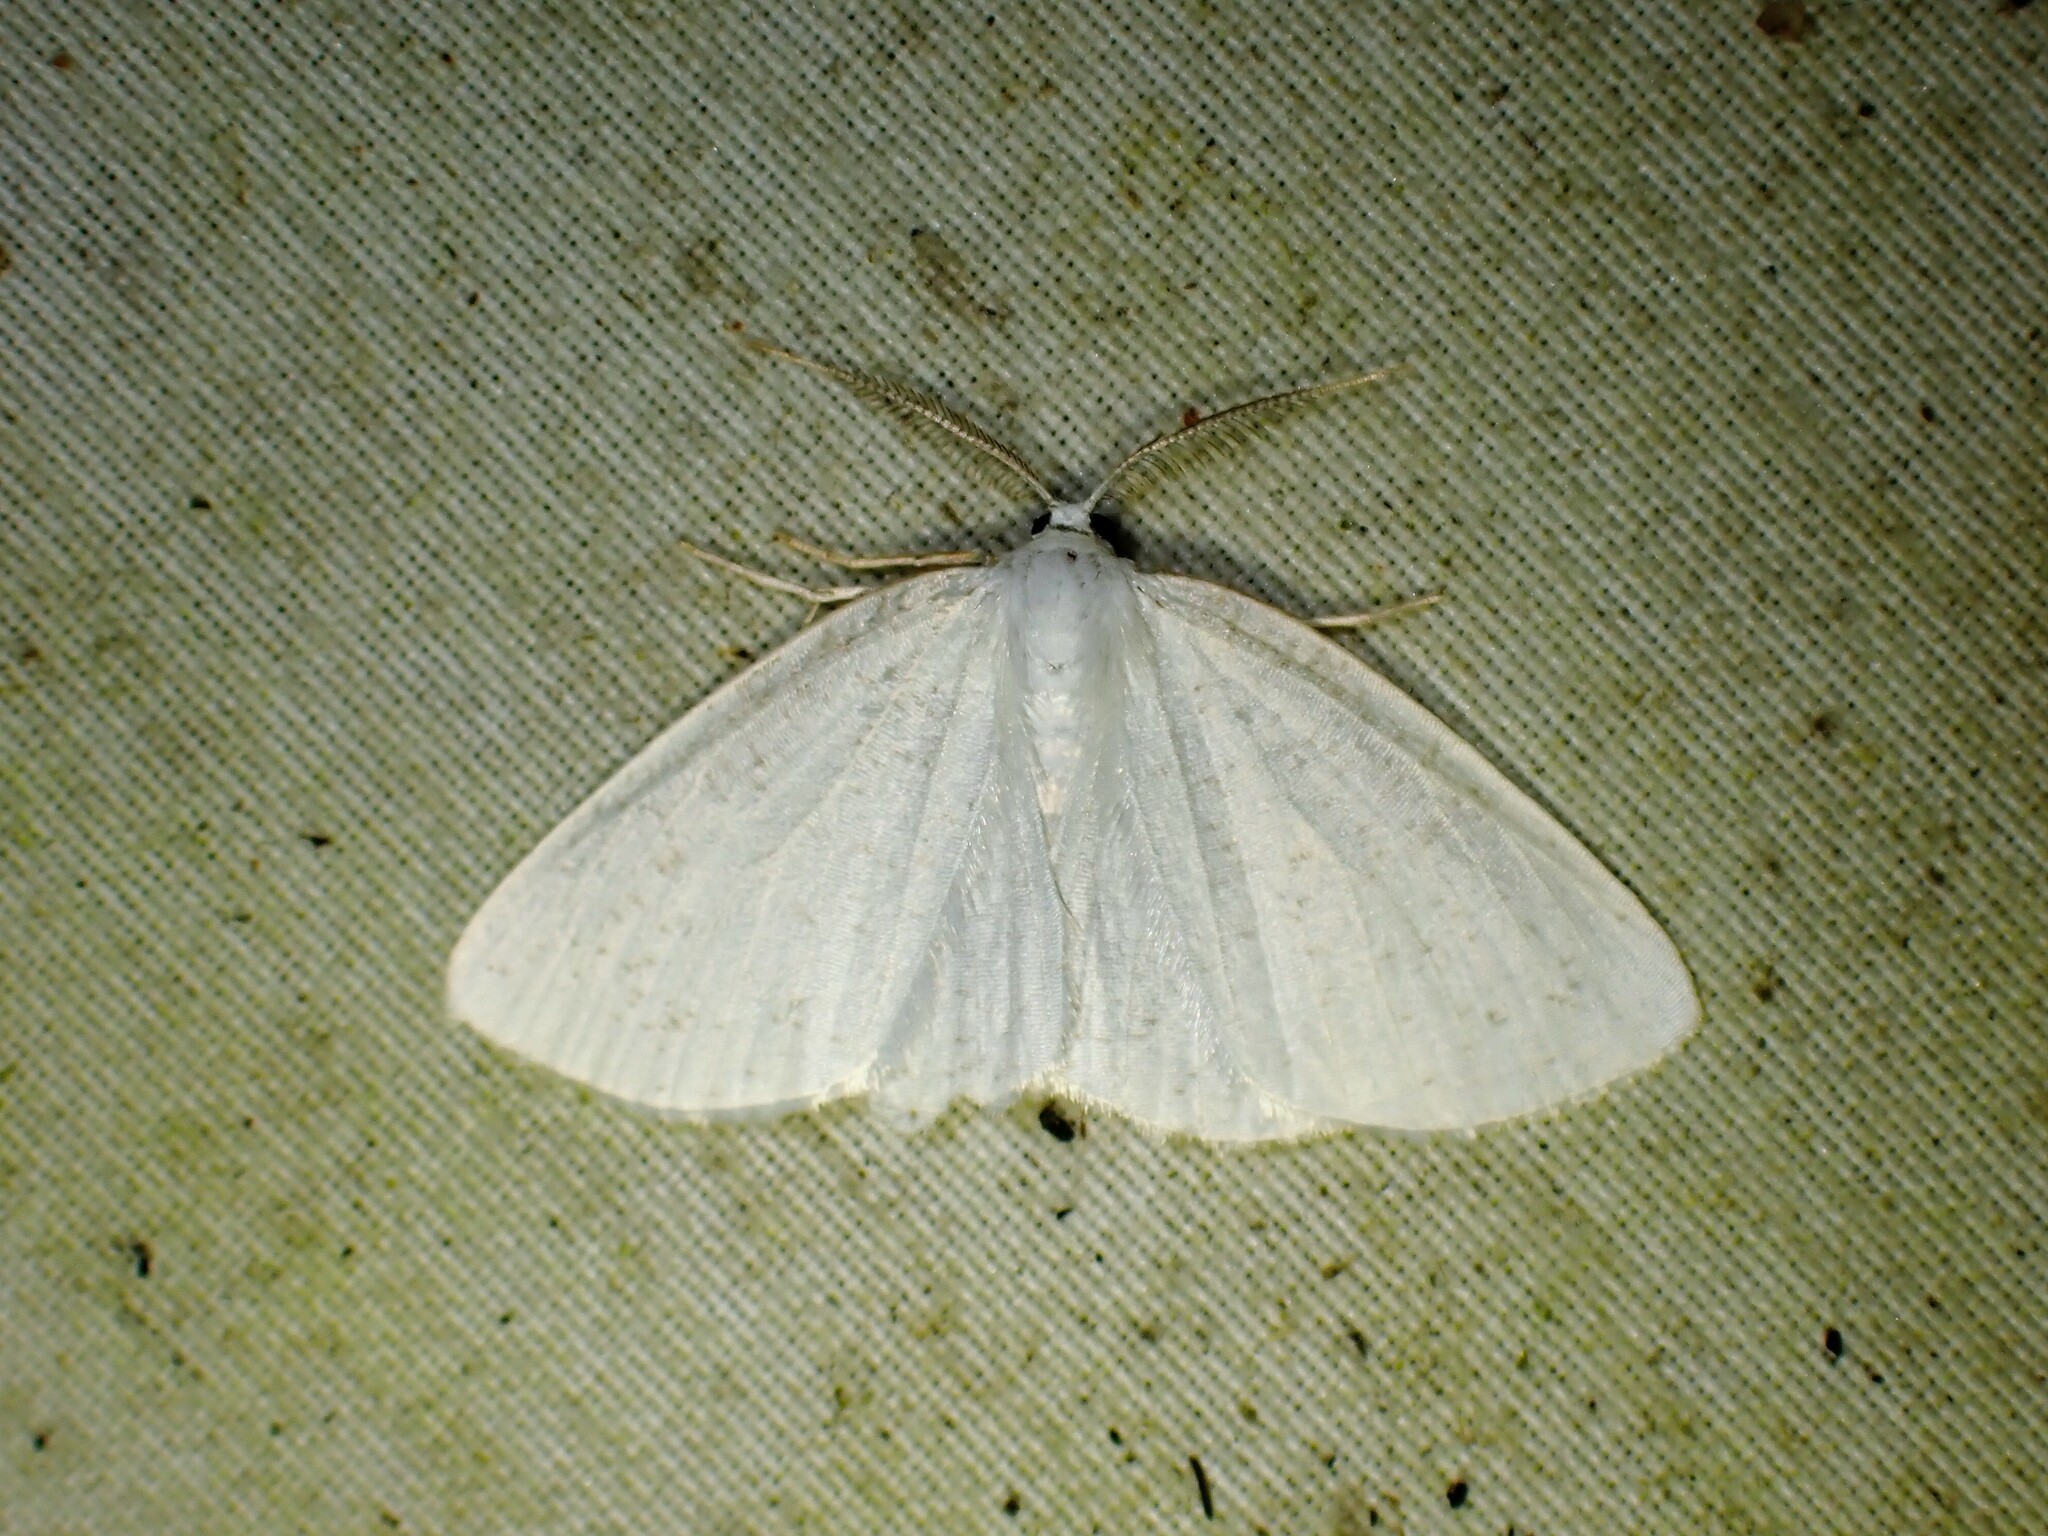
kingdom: Animalia
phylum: Arthropoda
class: Insecta
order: Lepidoptera
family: Geometridae
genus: Cabera
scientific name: Cabera variolaria
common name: Pink-striped willow spanworm
